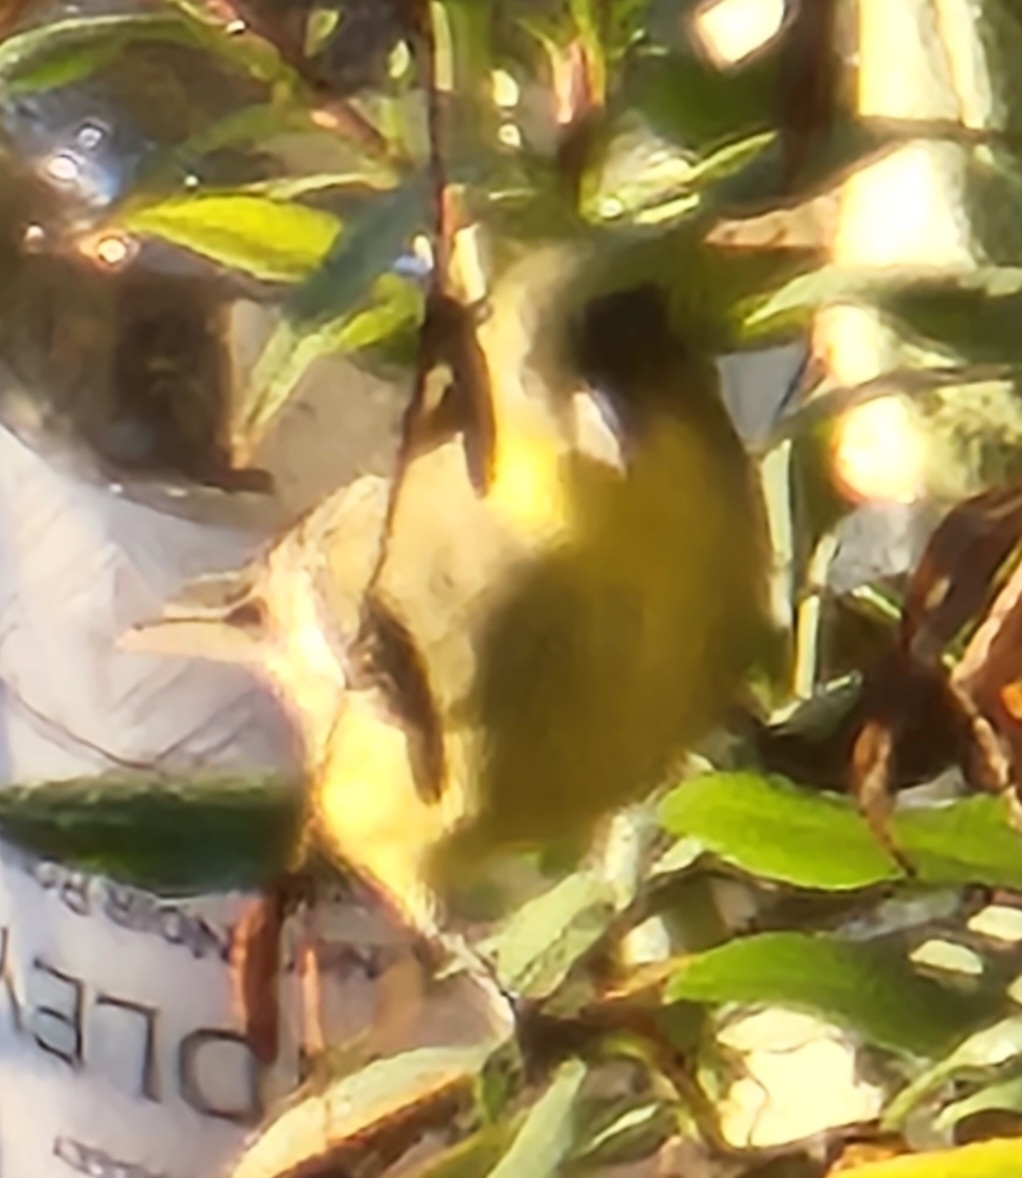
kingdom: Animalia
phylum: Chordata
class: Aves
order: Passeriformes
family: Fringillidae
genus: Spinus
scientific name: Spinus psaltria
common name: Lesser goldfinch
